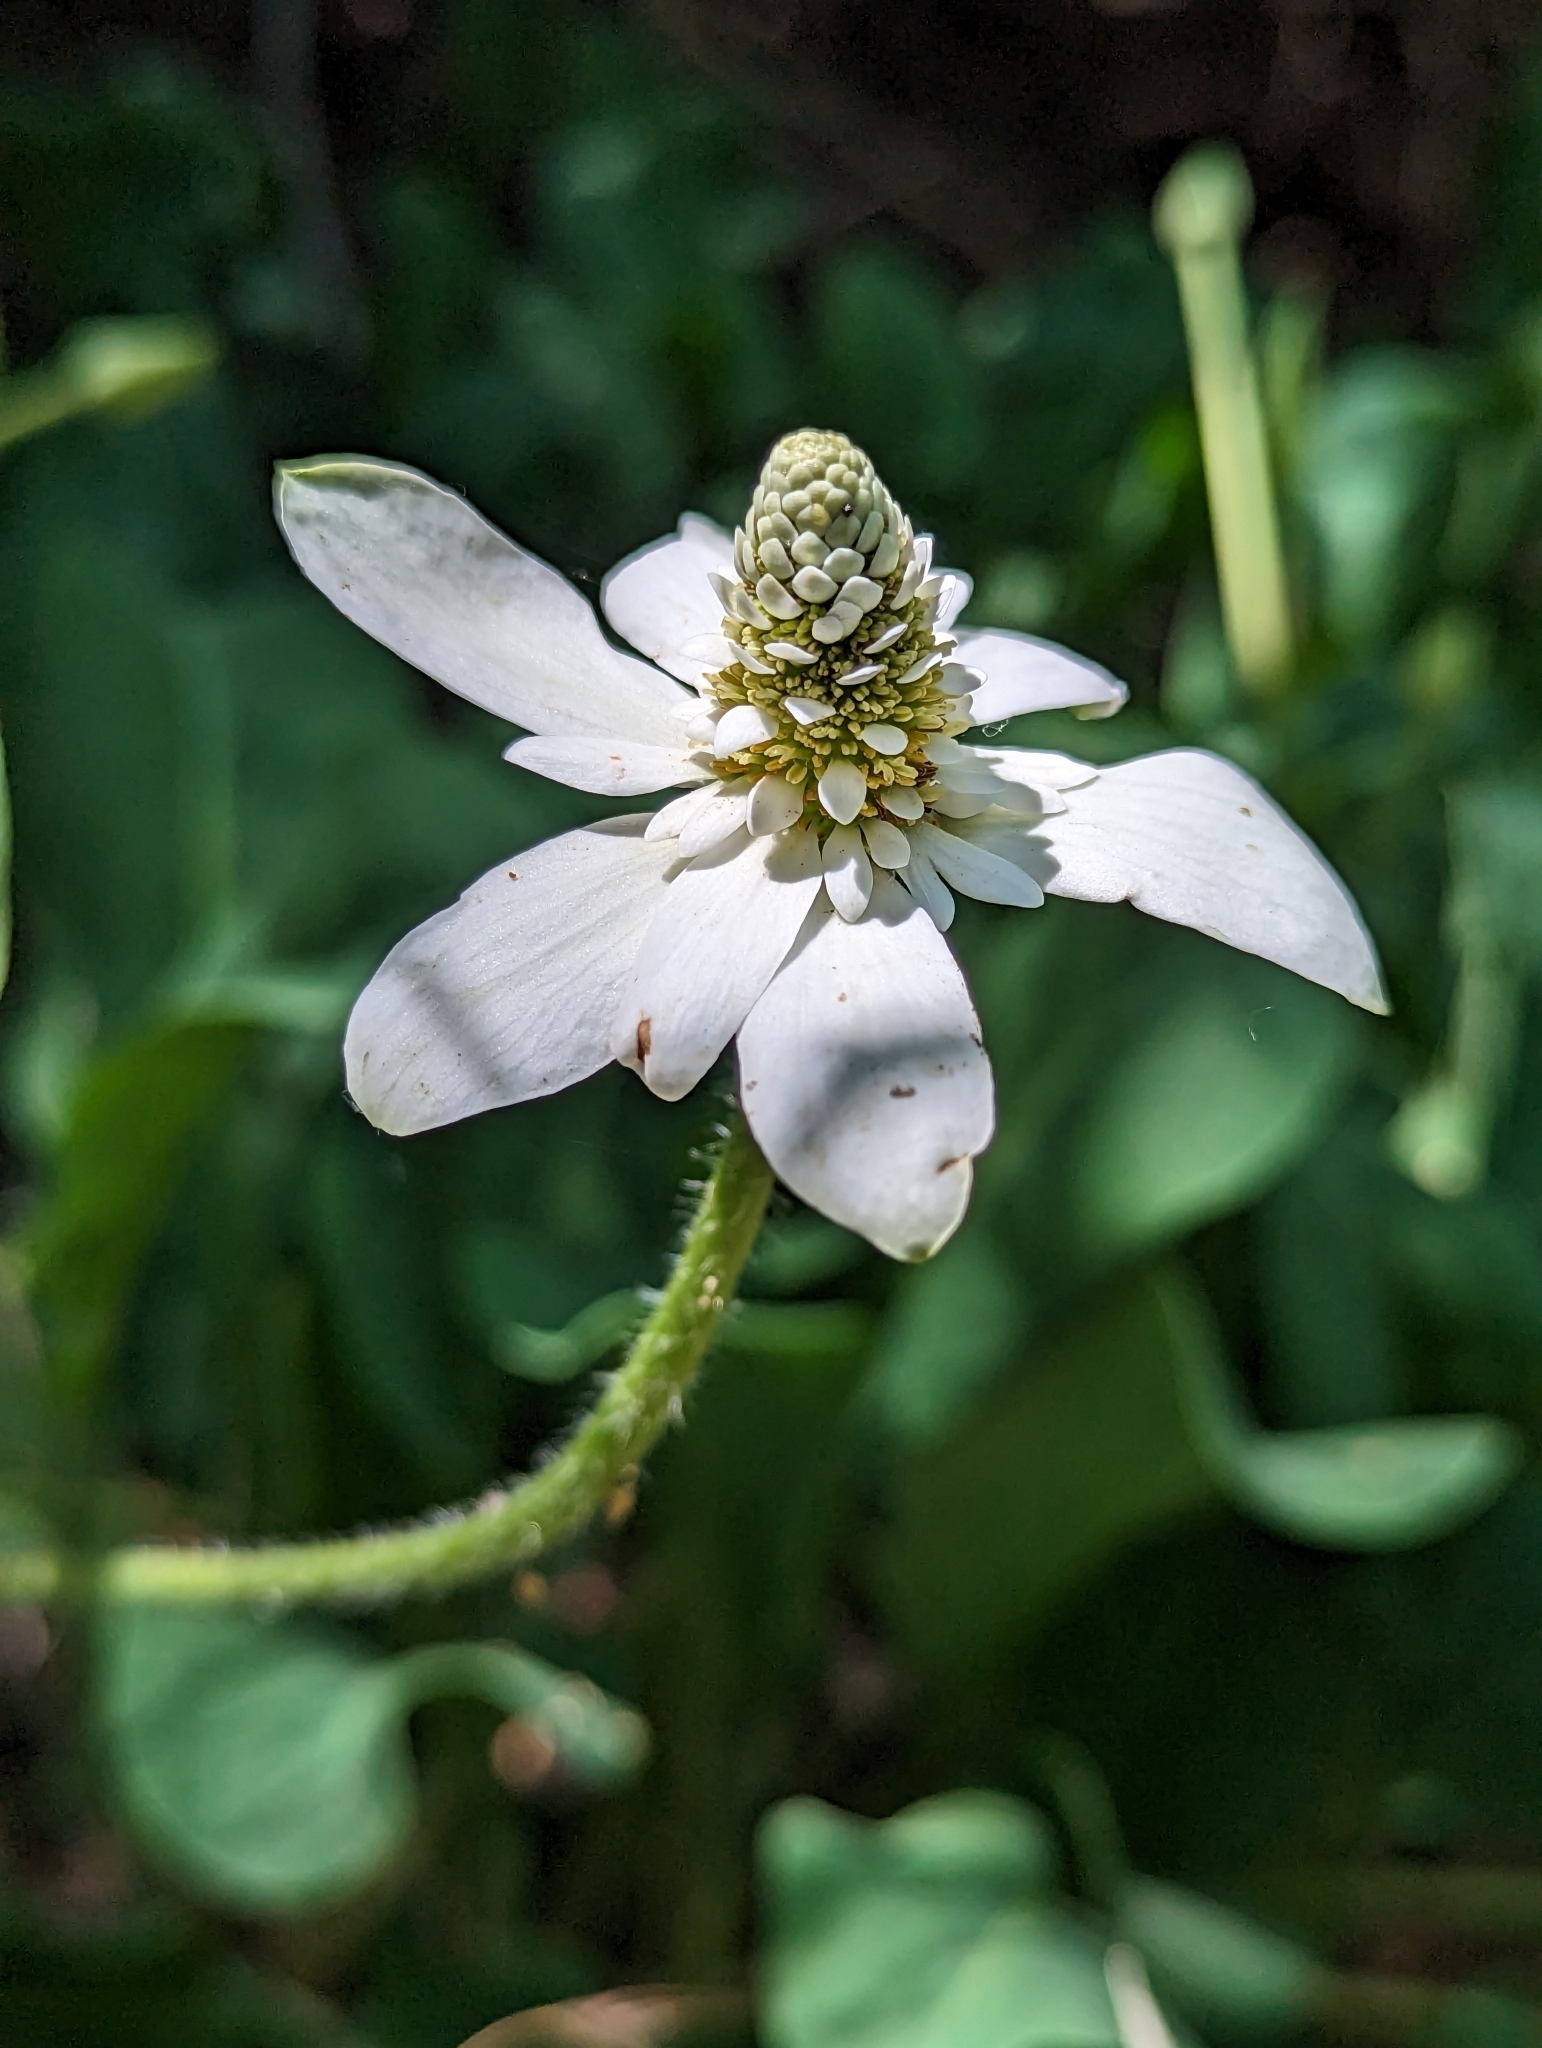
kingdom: Plantae
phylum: Tracheophyta
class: Magnoliopsida
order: Piperales
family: Saururaceae
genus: Anemopsis
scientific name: Anemopsis californica
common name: Apache-beads
